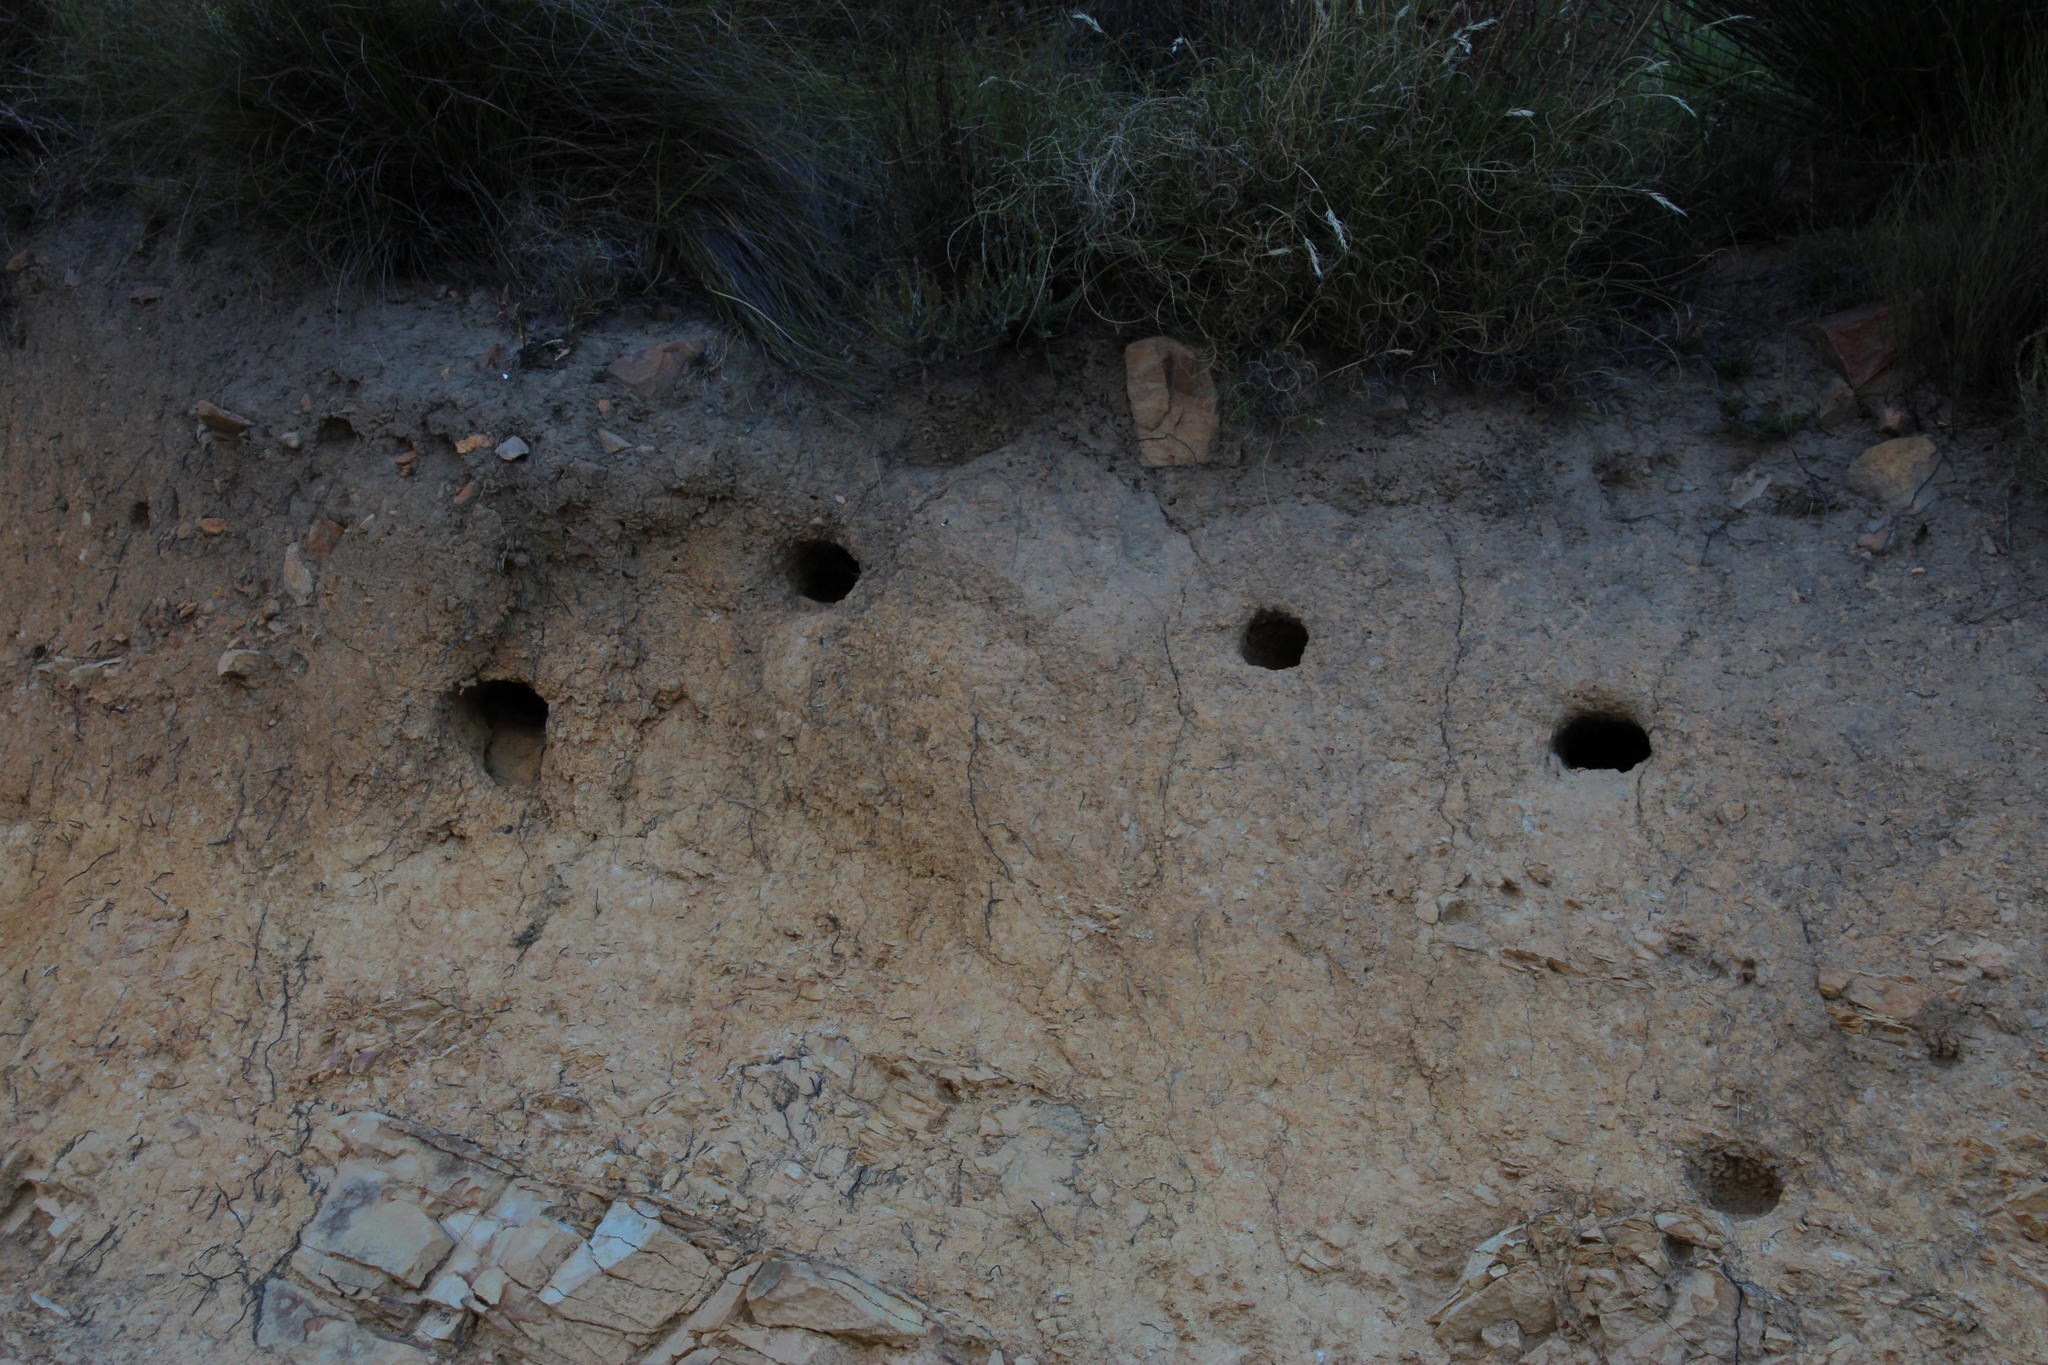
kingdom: Animalia
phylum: Chordata
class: Aves
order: Coraciiformes
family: Meropidae
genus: Merops
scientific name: Merops apiaster
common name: European bee-eater
